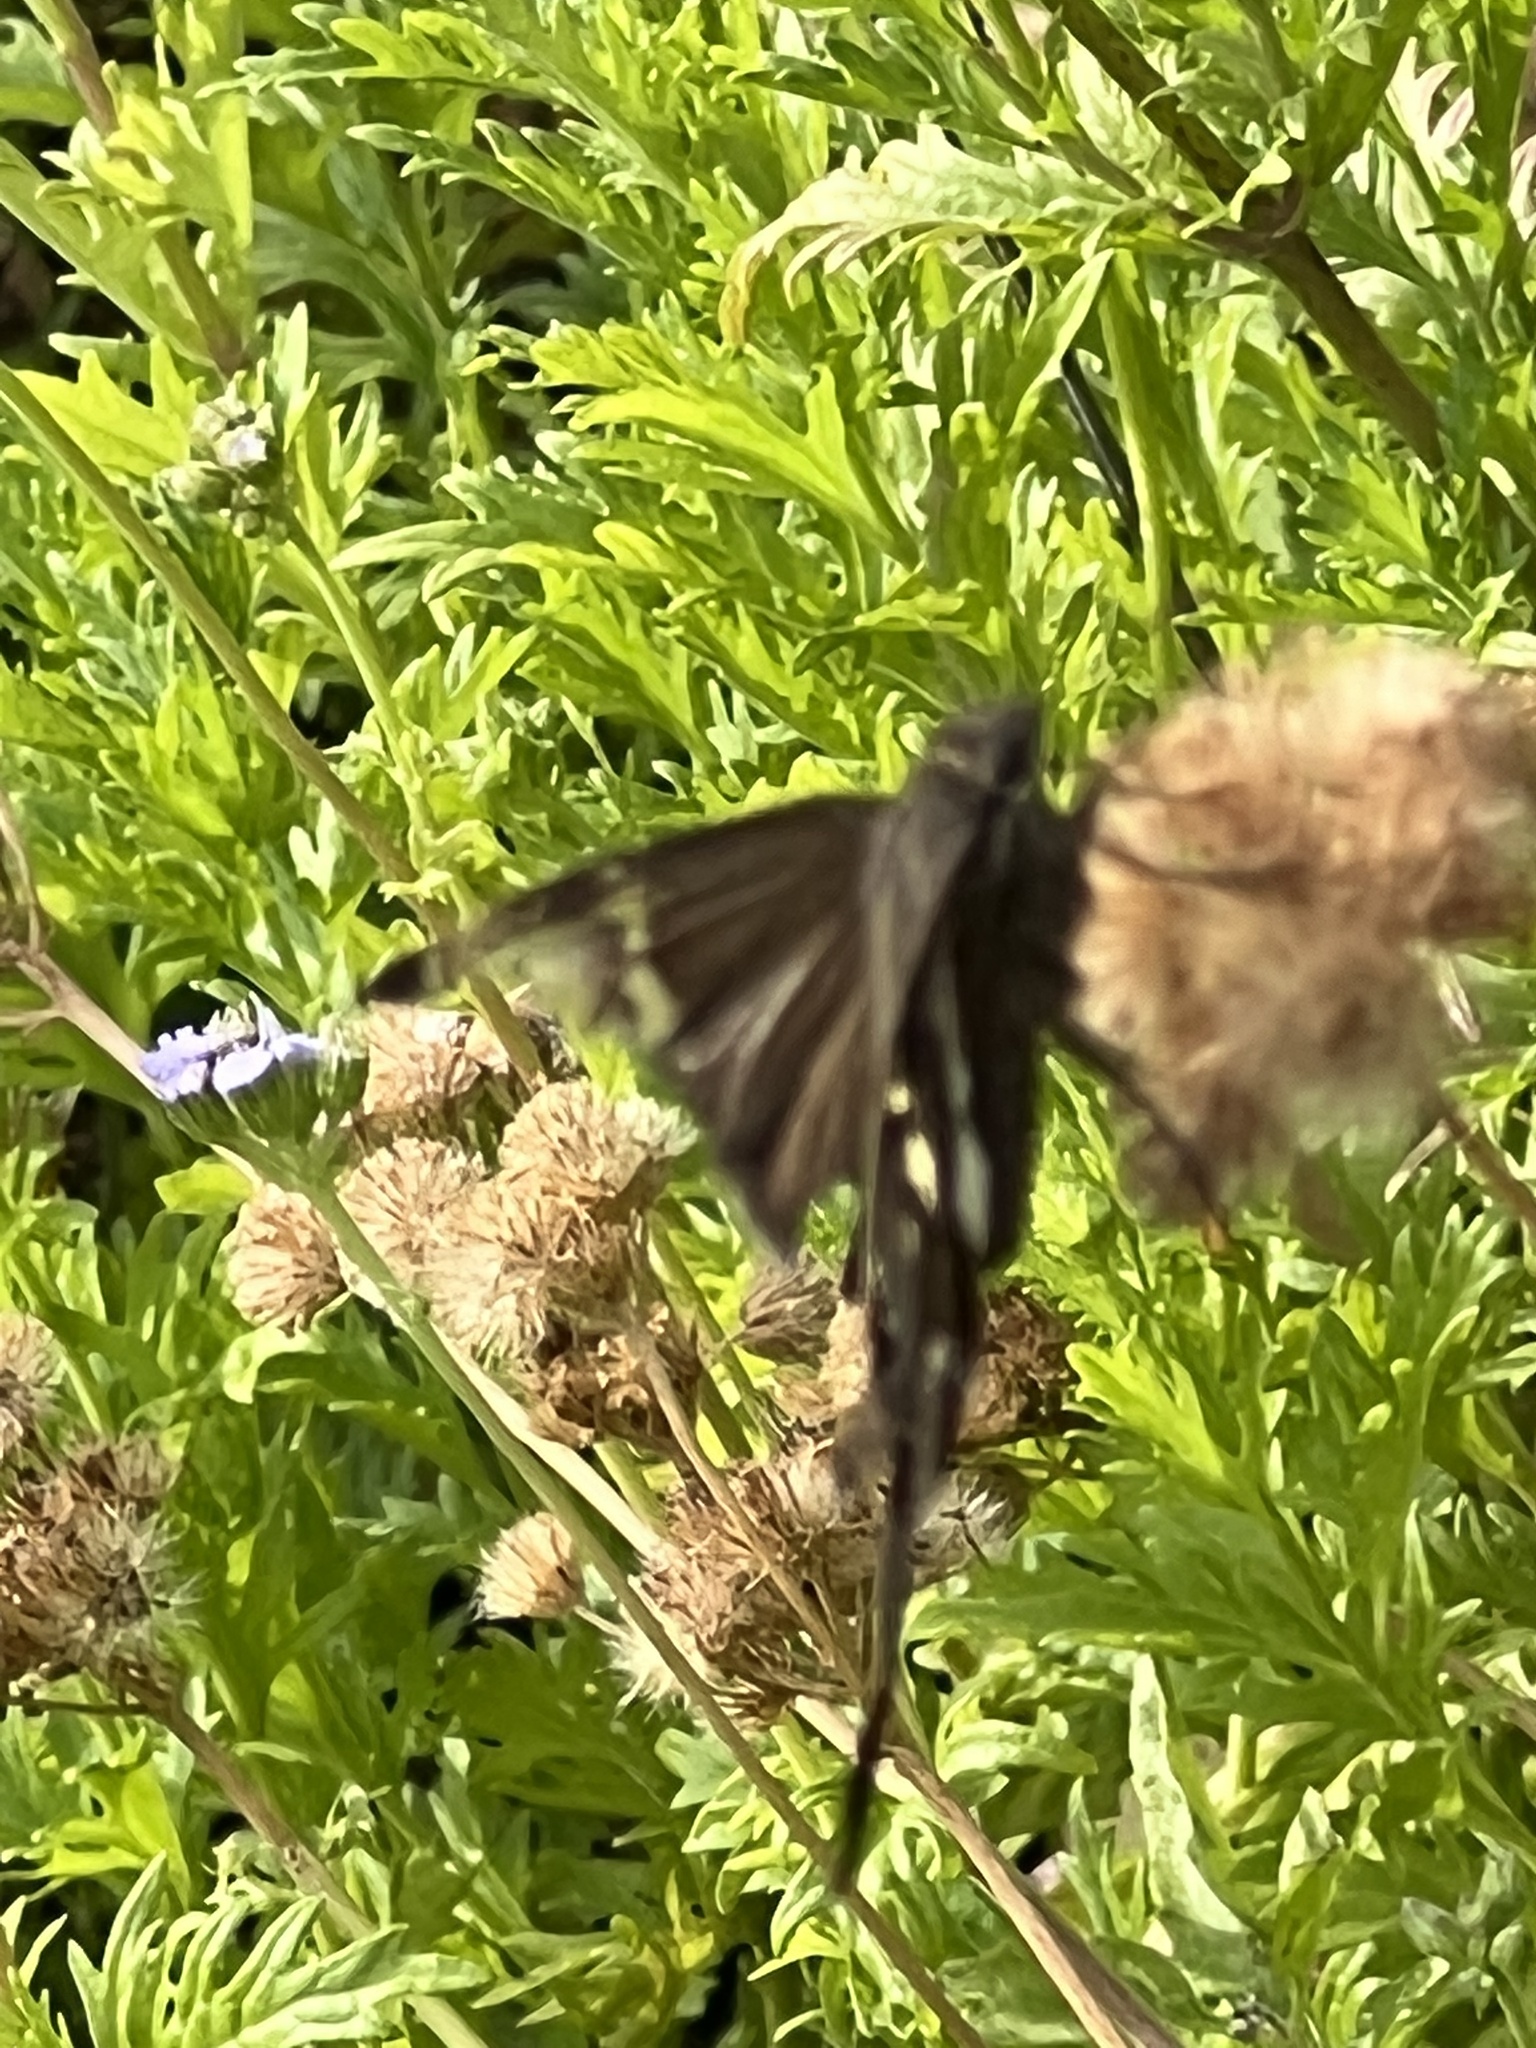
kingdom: Animalia
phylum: Arthropoda
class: Insecta
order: Lepidoptera
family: Hesperiidae
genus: Chioides
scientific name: Chioides catillus
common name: Silverbanded skipper
